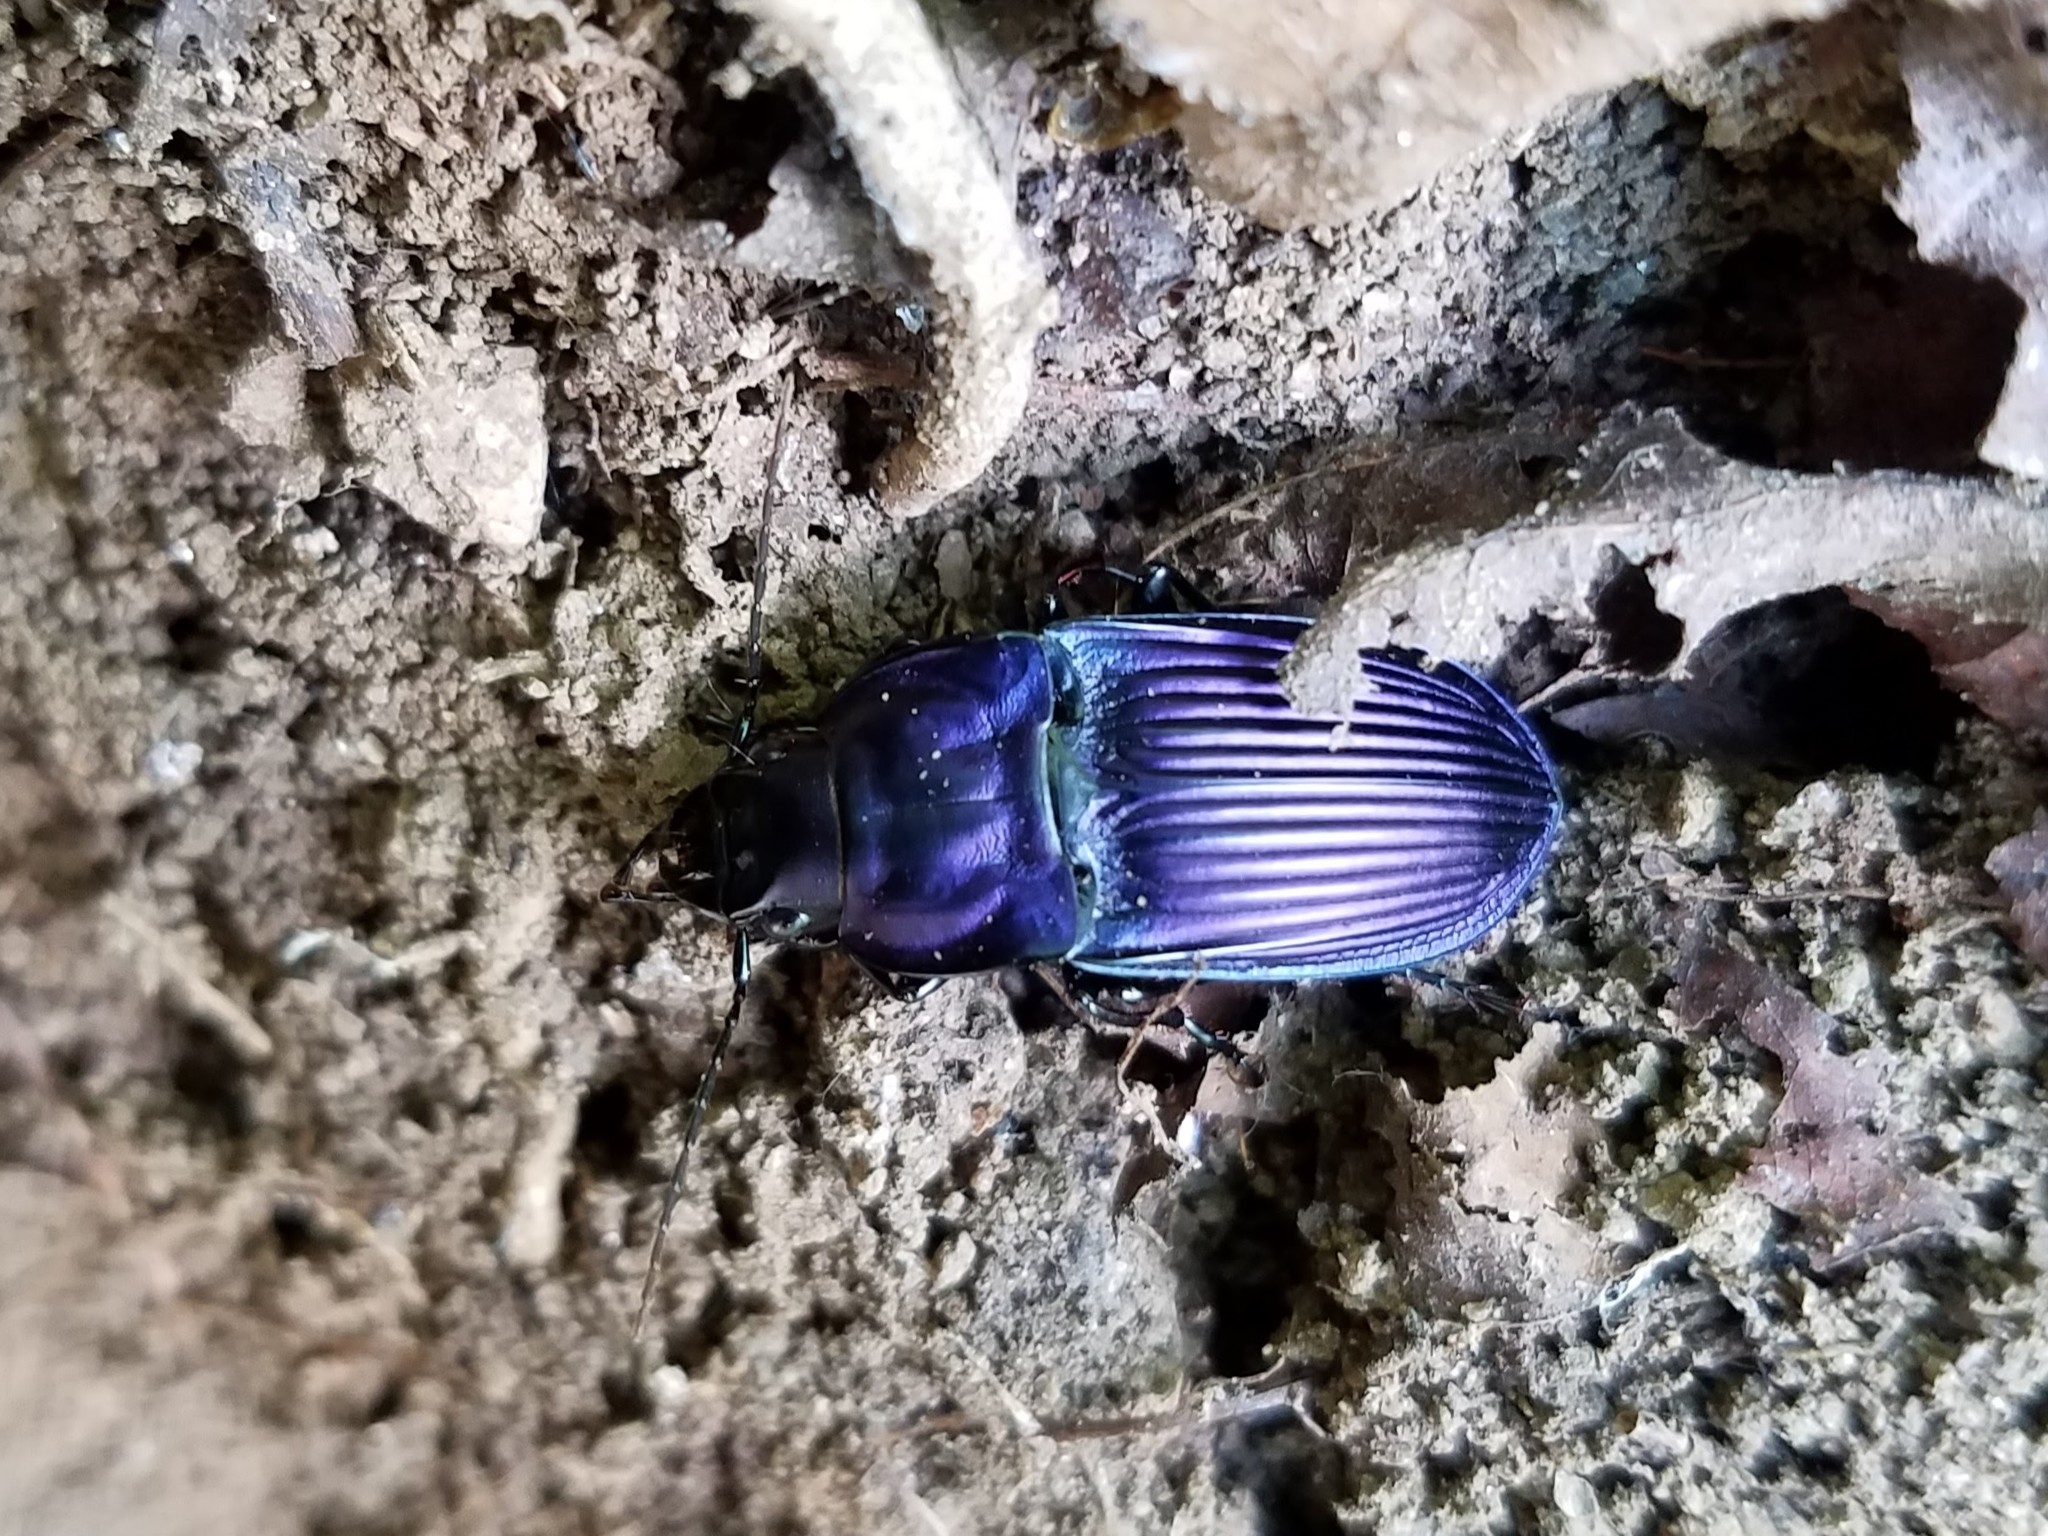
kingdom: Animalia
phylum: Arthropoda
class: Insecta
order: Coleoptera
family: Carabidae
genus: Dicaelus
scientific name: Dicaelus purpuratus
